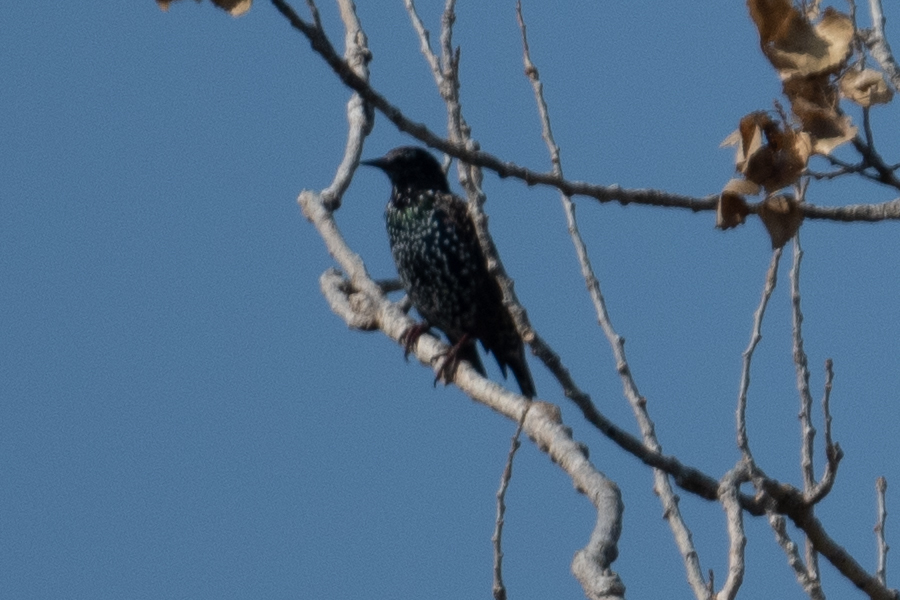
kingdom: Animalia
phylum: Chordata
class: Aves
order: Passeriformes
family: Sturnidae
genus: Sturnus
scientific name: Sturnus vulgaris
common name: Common starling
